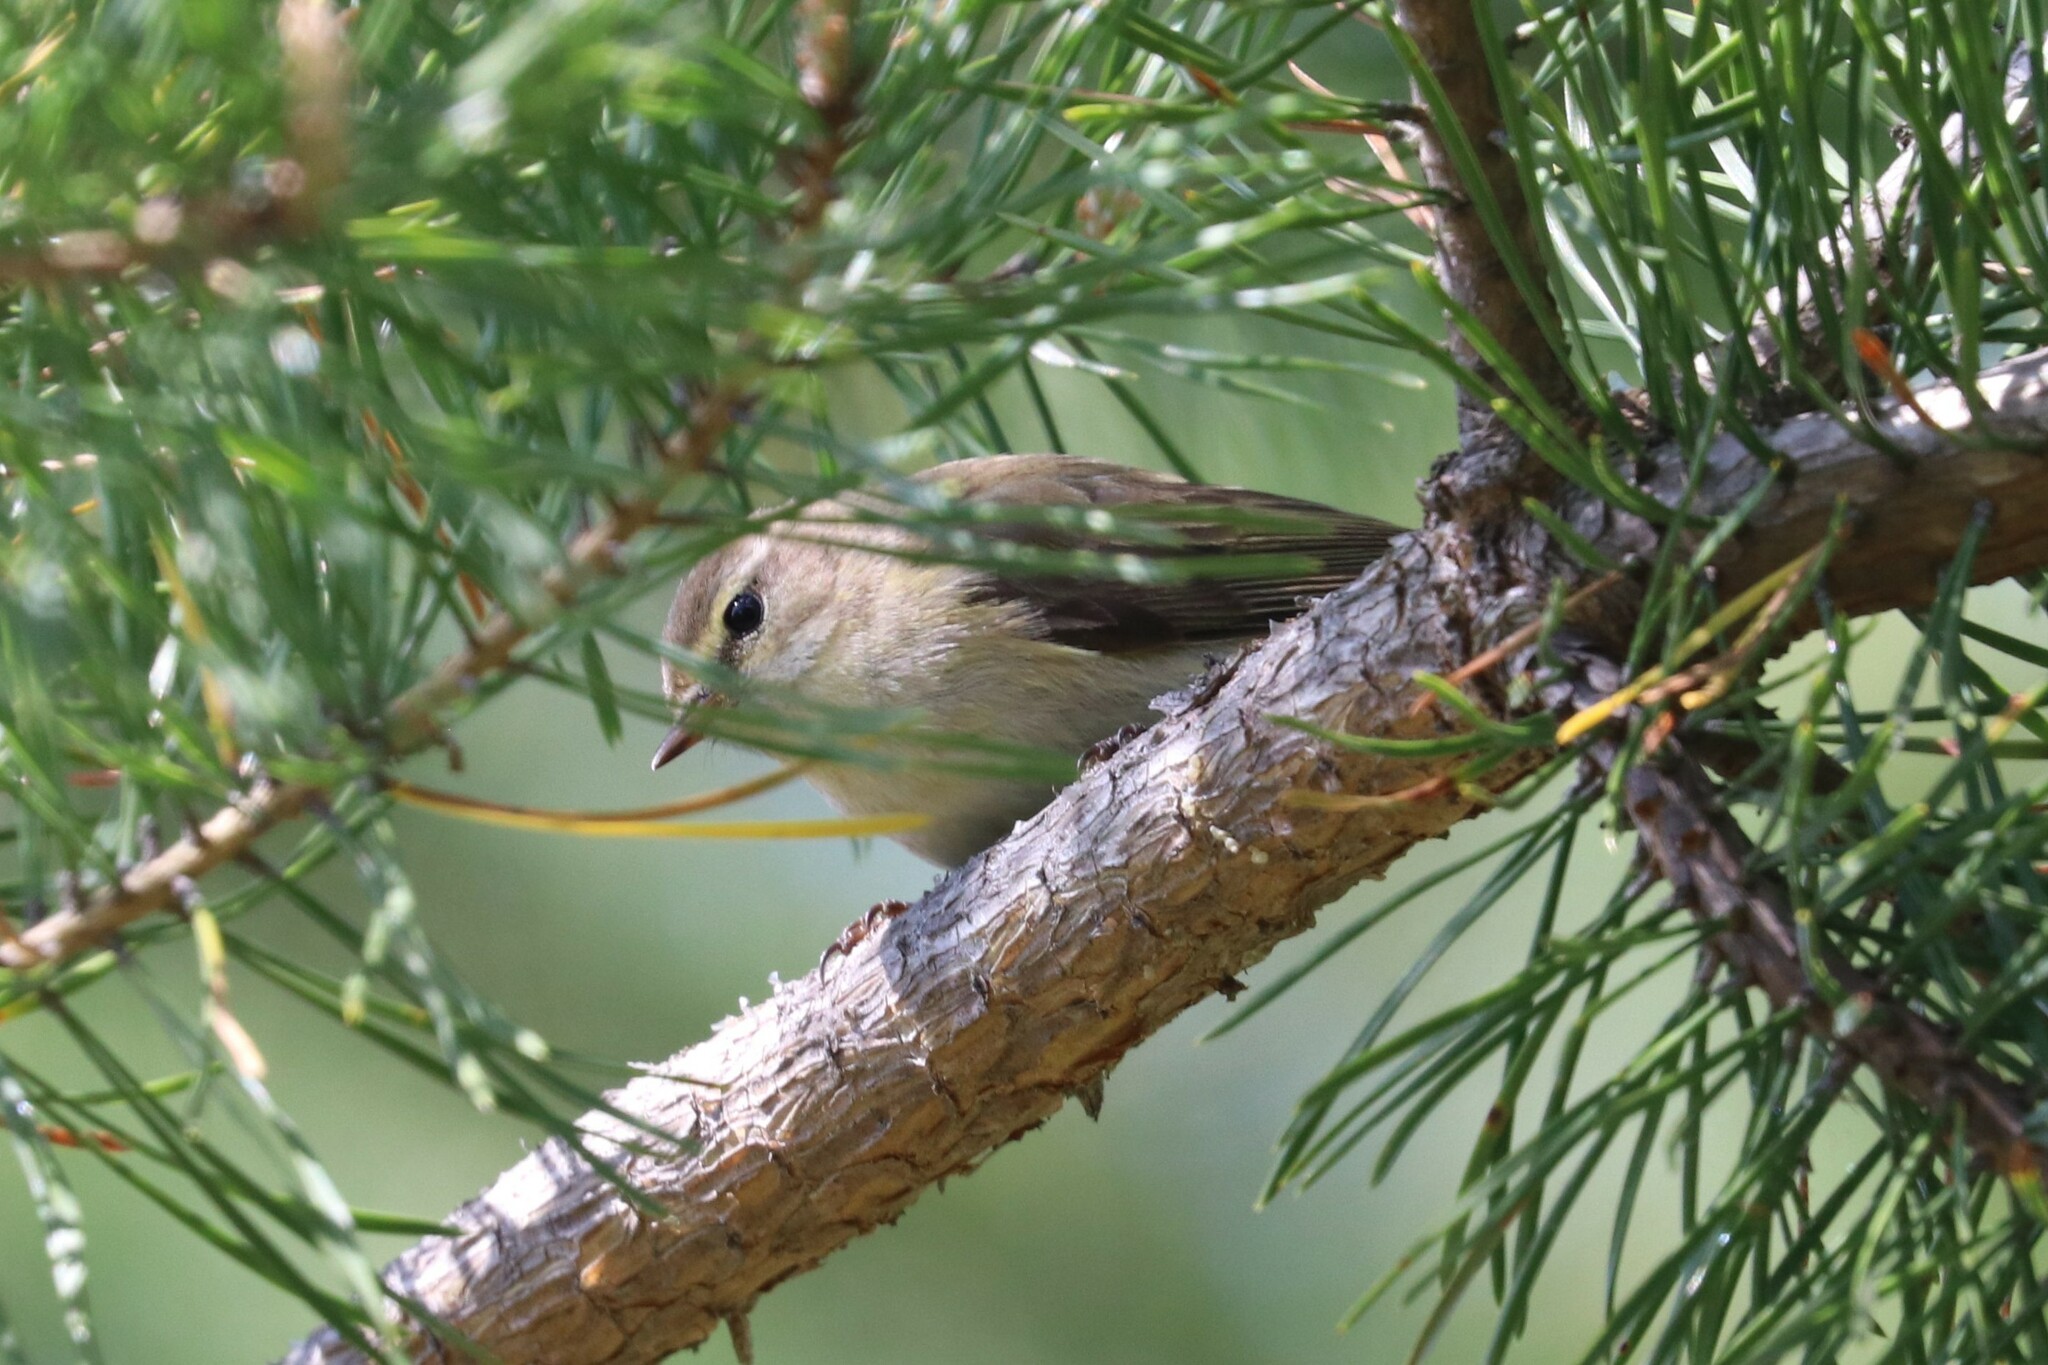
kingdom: Animalia
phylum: Chordata
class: Aves
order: Passeriformes
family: Phylloscopidae
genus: Phylloscopus
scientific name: Phylloscopus collybita
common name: Common chiffchaff
